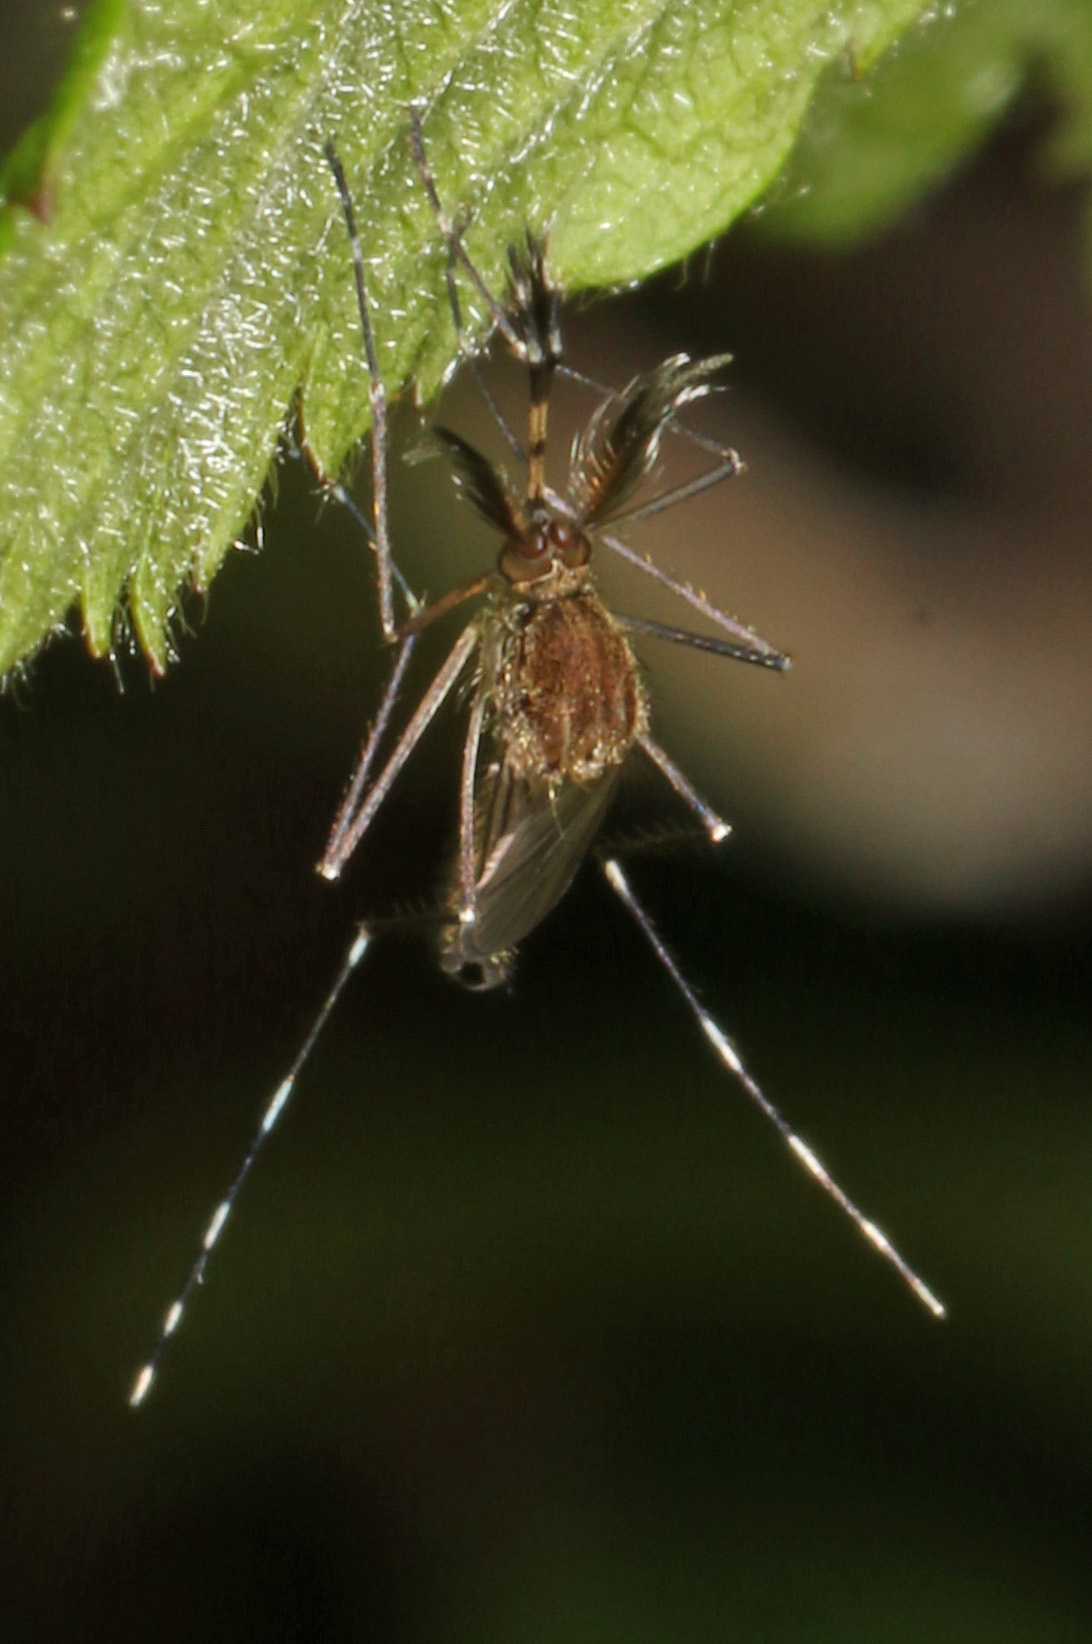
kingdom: Animalia
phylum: Arthropoda
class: Insecta
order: Diptera
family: Culicidae
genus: Aedes
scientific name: Aedes canadensis
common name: Woodland pool mosquito
